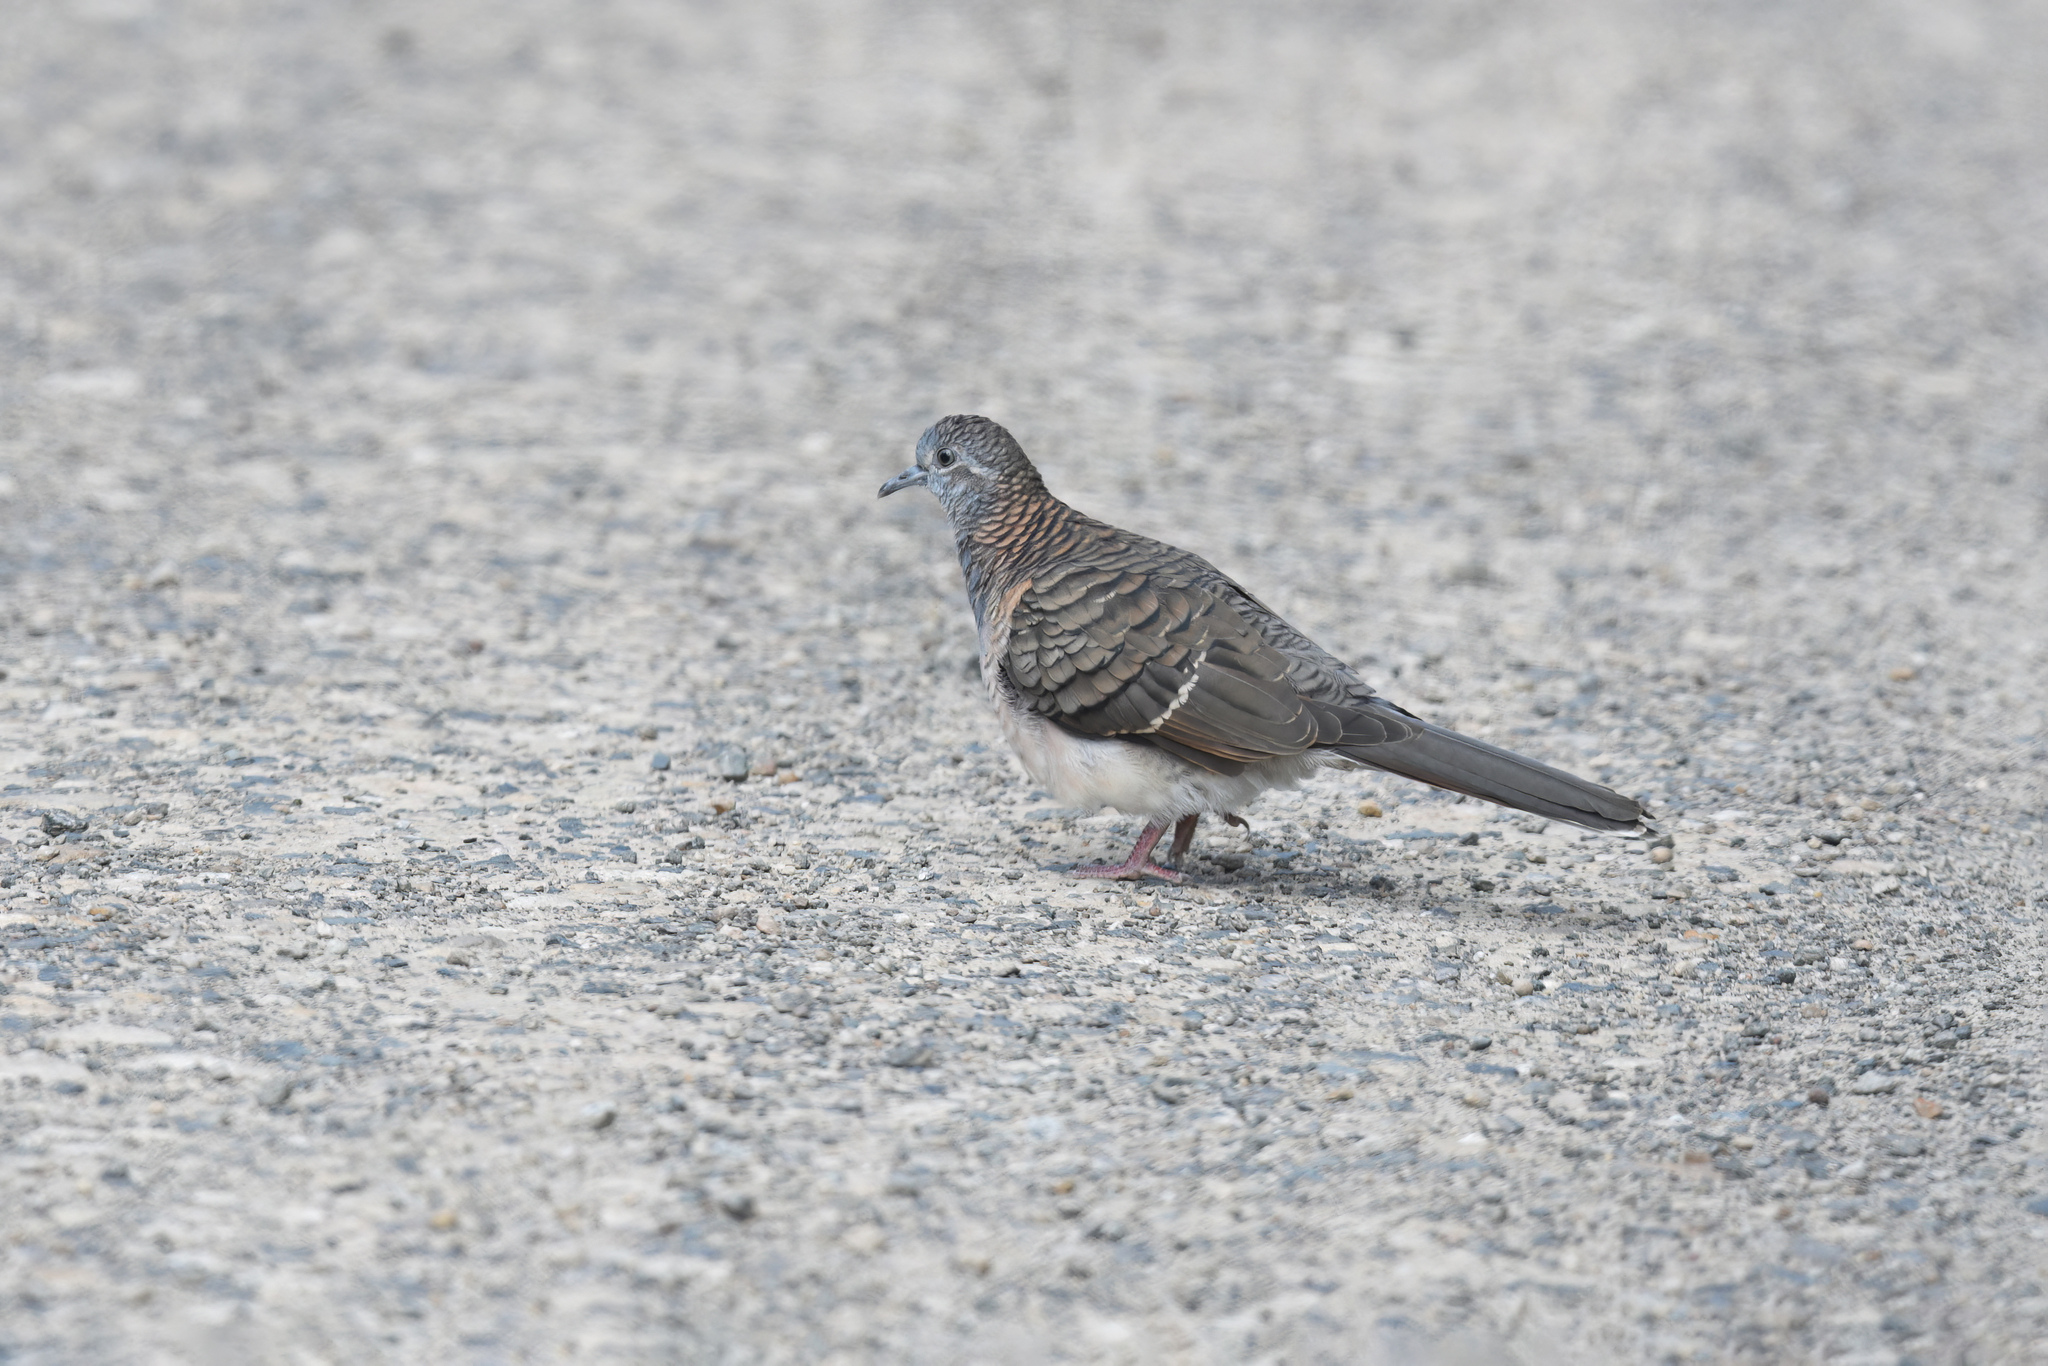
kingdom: Animalia
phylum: Chordata
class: Aves
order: Columbiformes
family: Columbidae
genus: Geopelia
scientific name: Geopelia humeralis
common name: Bar-shouldered dove
